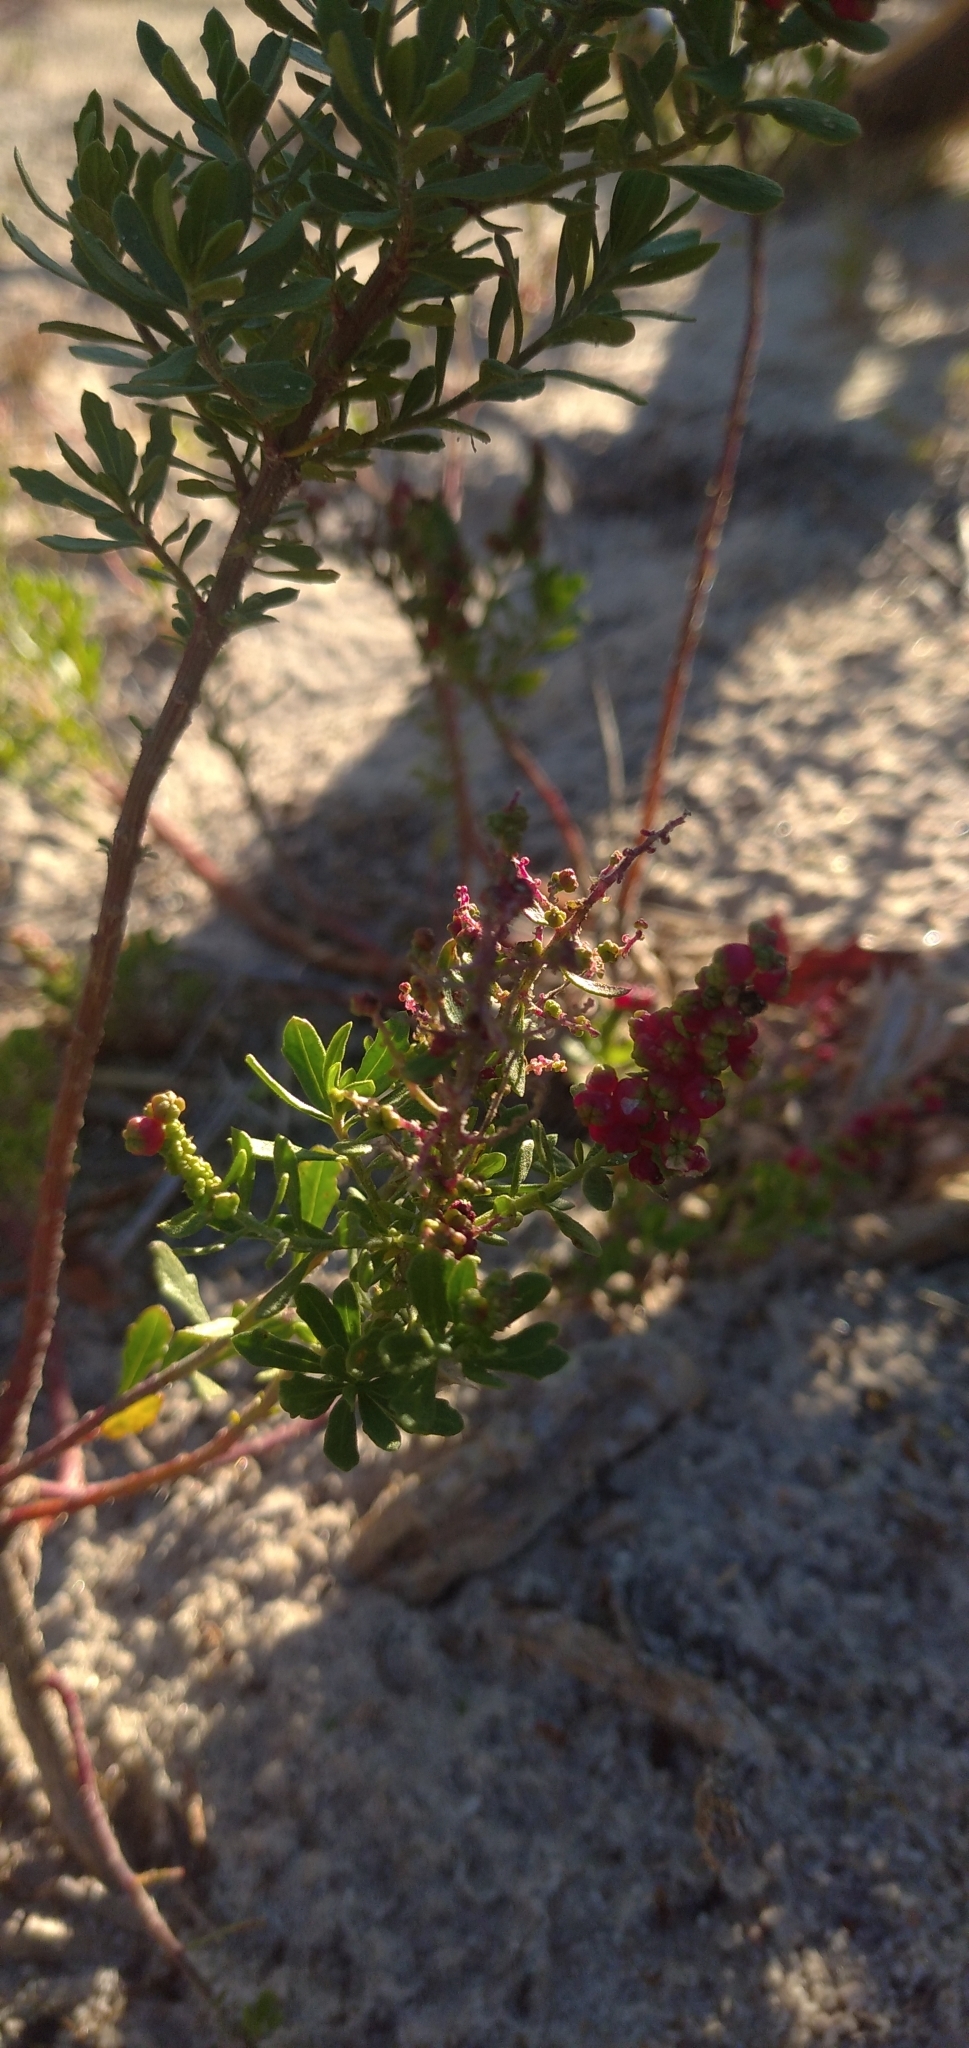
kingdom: Plantae
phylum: Tracheophyta
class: Magnoliopsida
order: Caryophyllales
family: Amaranthaceae
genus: Dysphania
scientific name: Dysphania retusa
